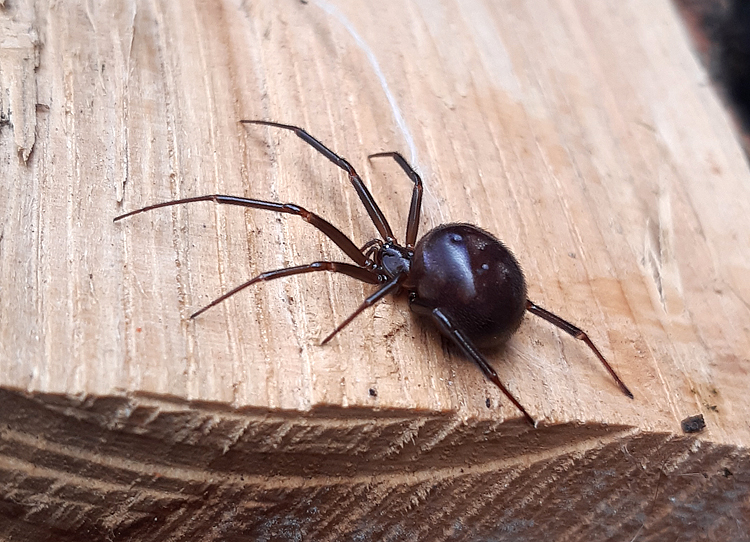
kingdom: Animalia
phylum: Arthropoda
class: Arachnida
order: Araneae
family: Theridiidae
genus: Steatoda
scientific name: Steatoda grossa
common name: False black widow
